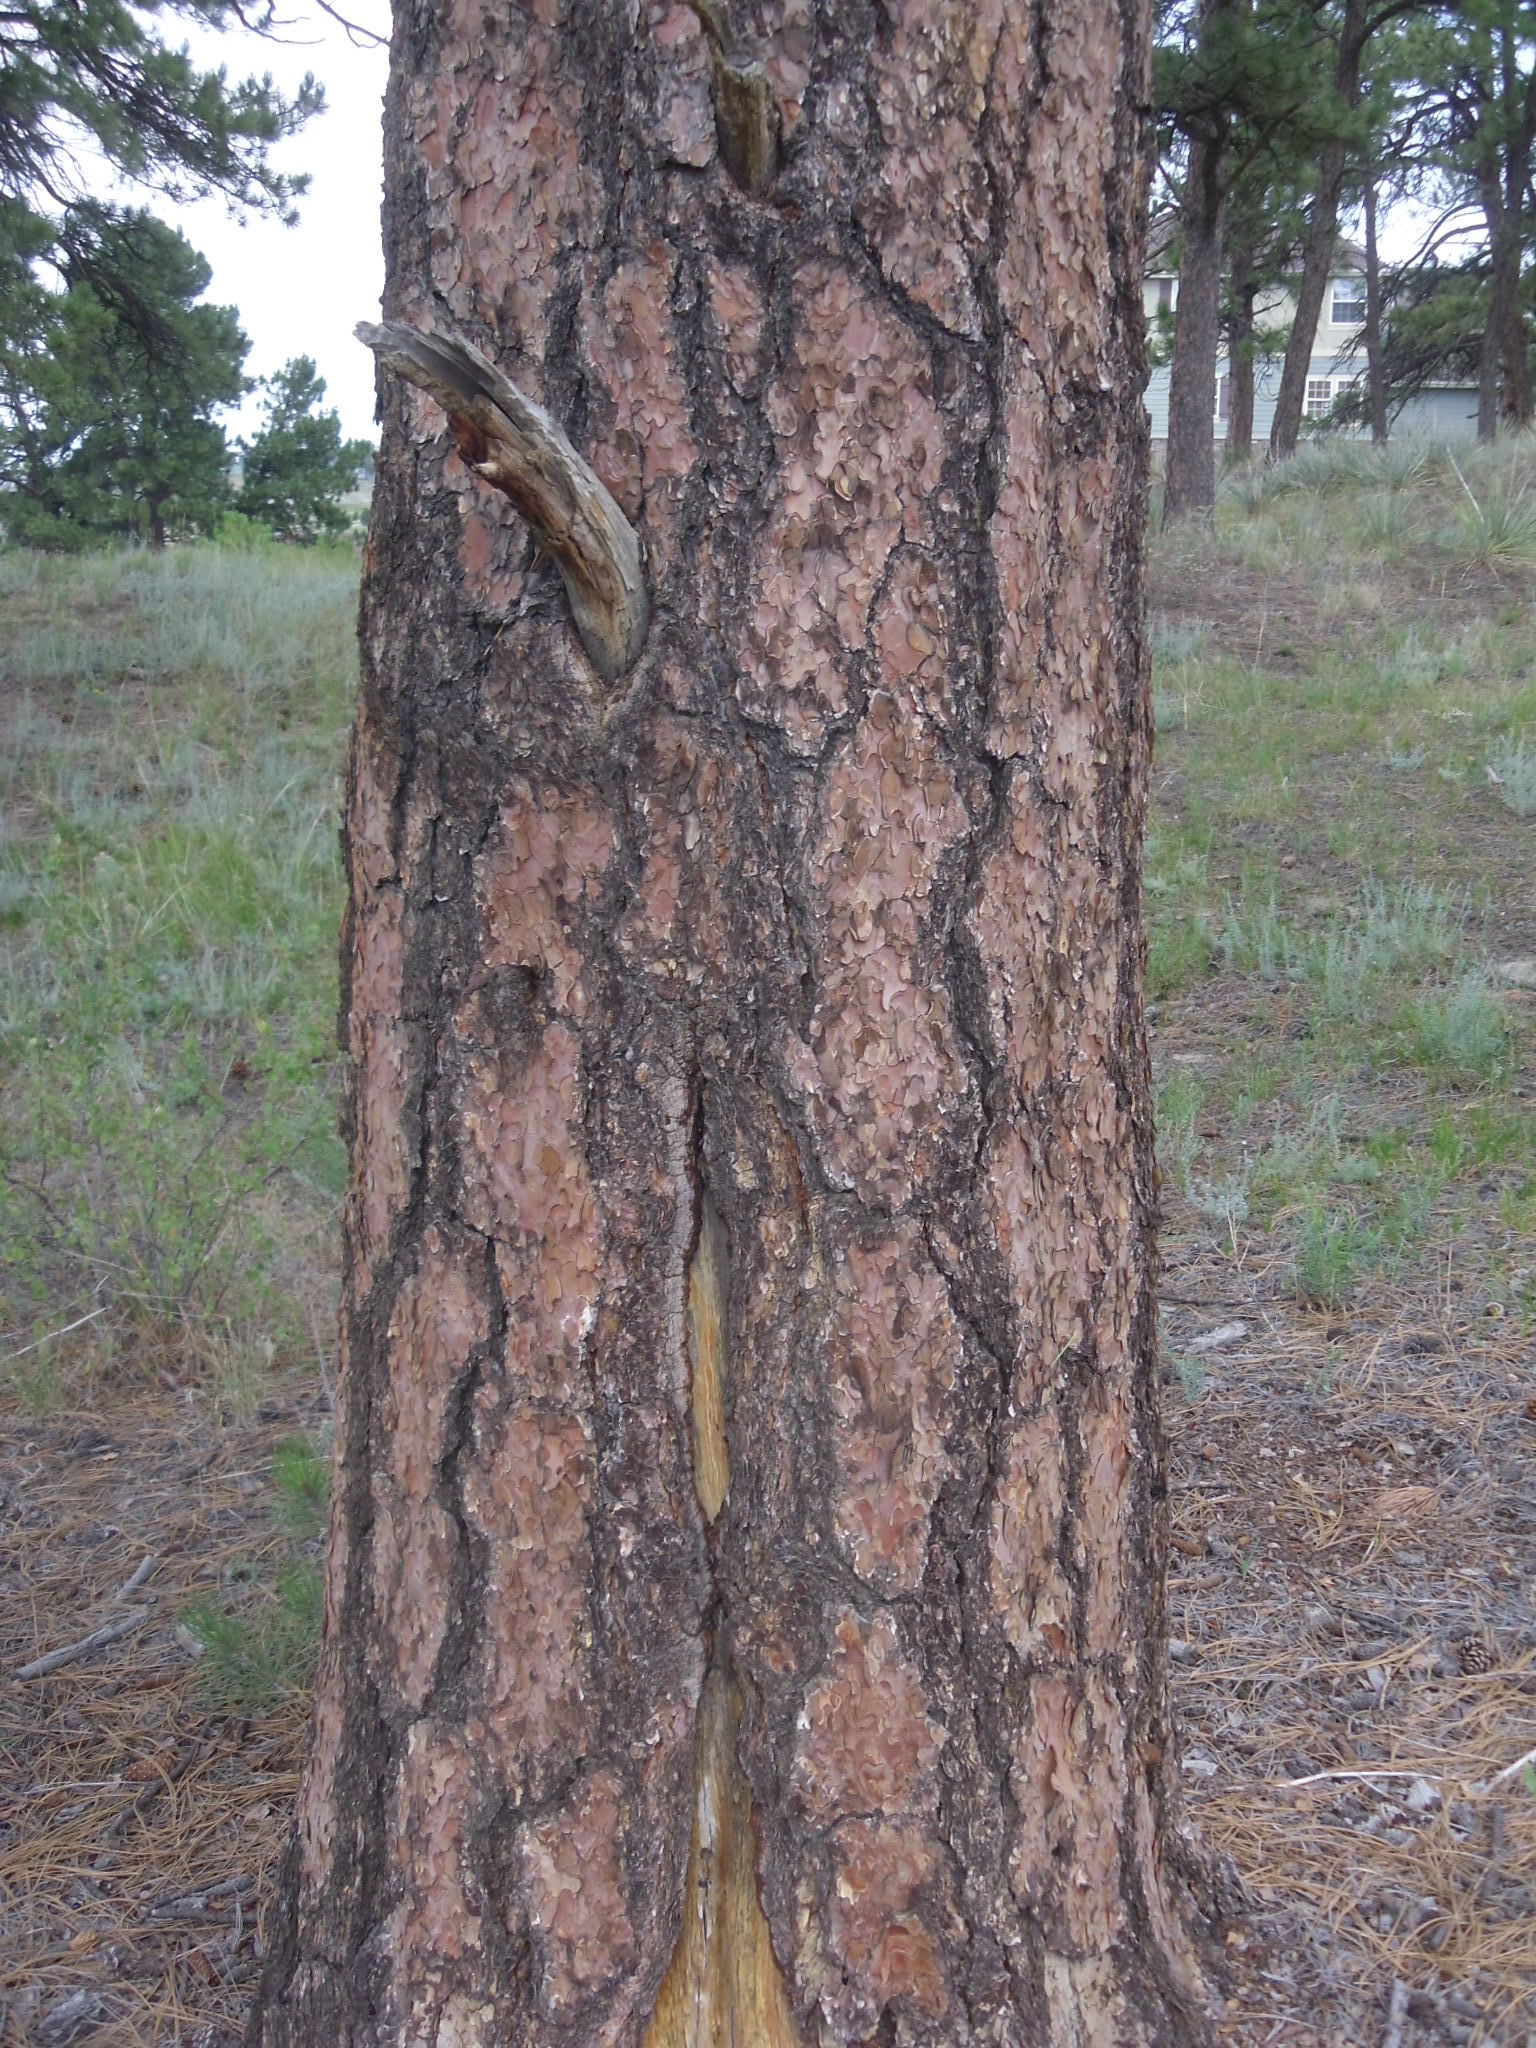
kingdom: Plantae
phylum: Tracheophyta
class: Pinopsida
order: Pinales
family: Pinaceae
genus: Pinus
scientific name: Pinus ponderosa
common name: Western yellow-pine
